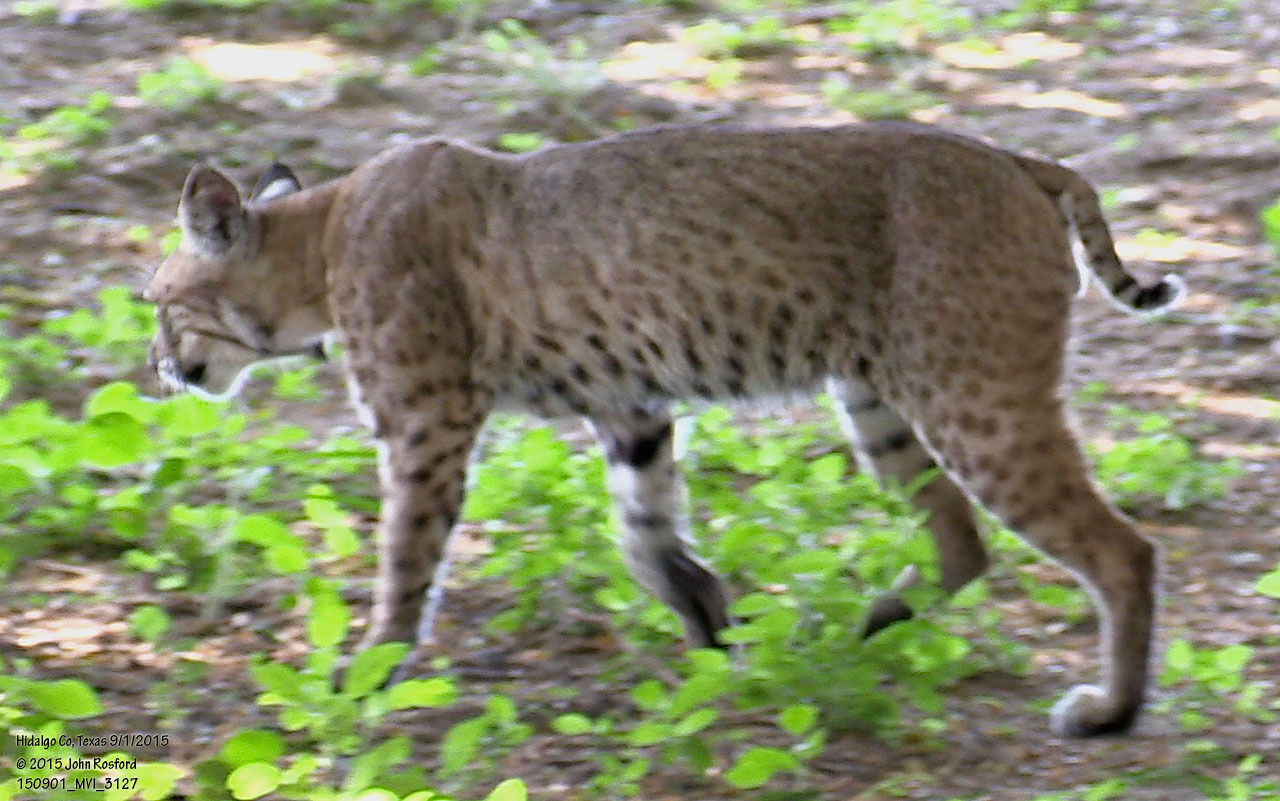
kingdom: Animalia
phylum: Chordata
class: Mammalia
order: Carnivora
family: Felidae
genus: Lynx
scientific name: Lynx rufus
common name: Bobcat
